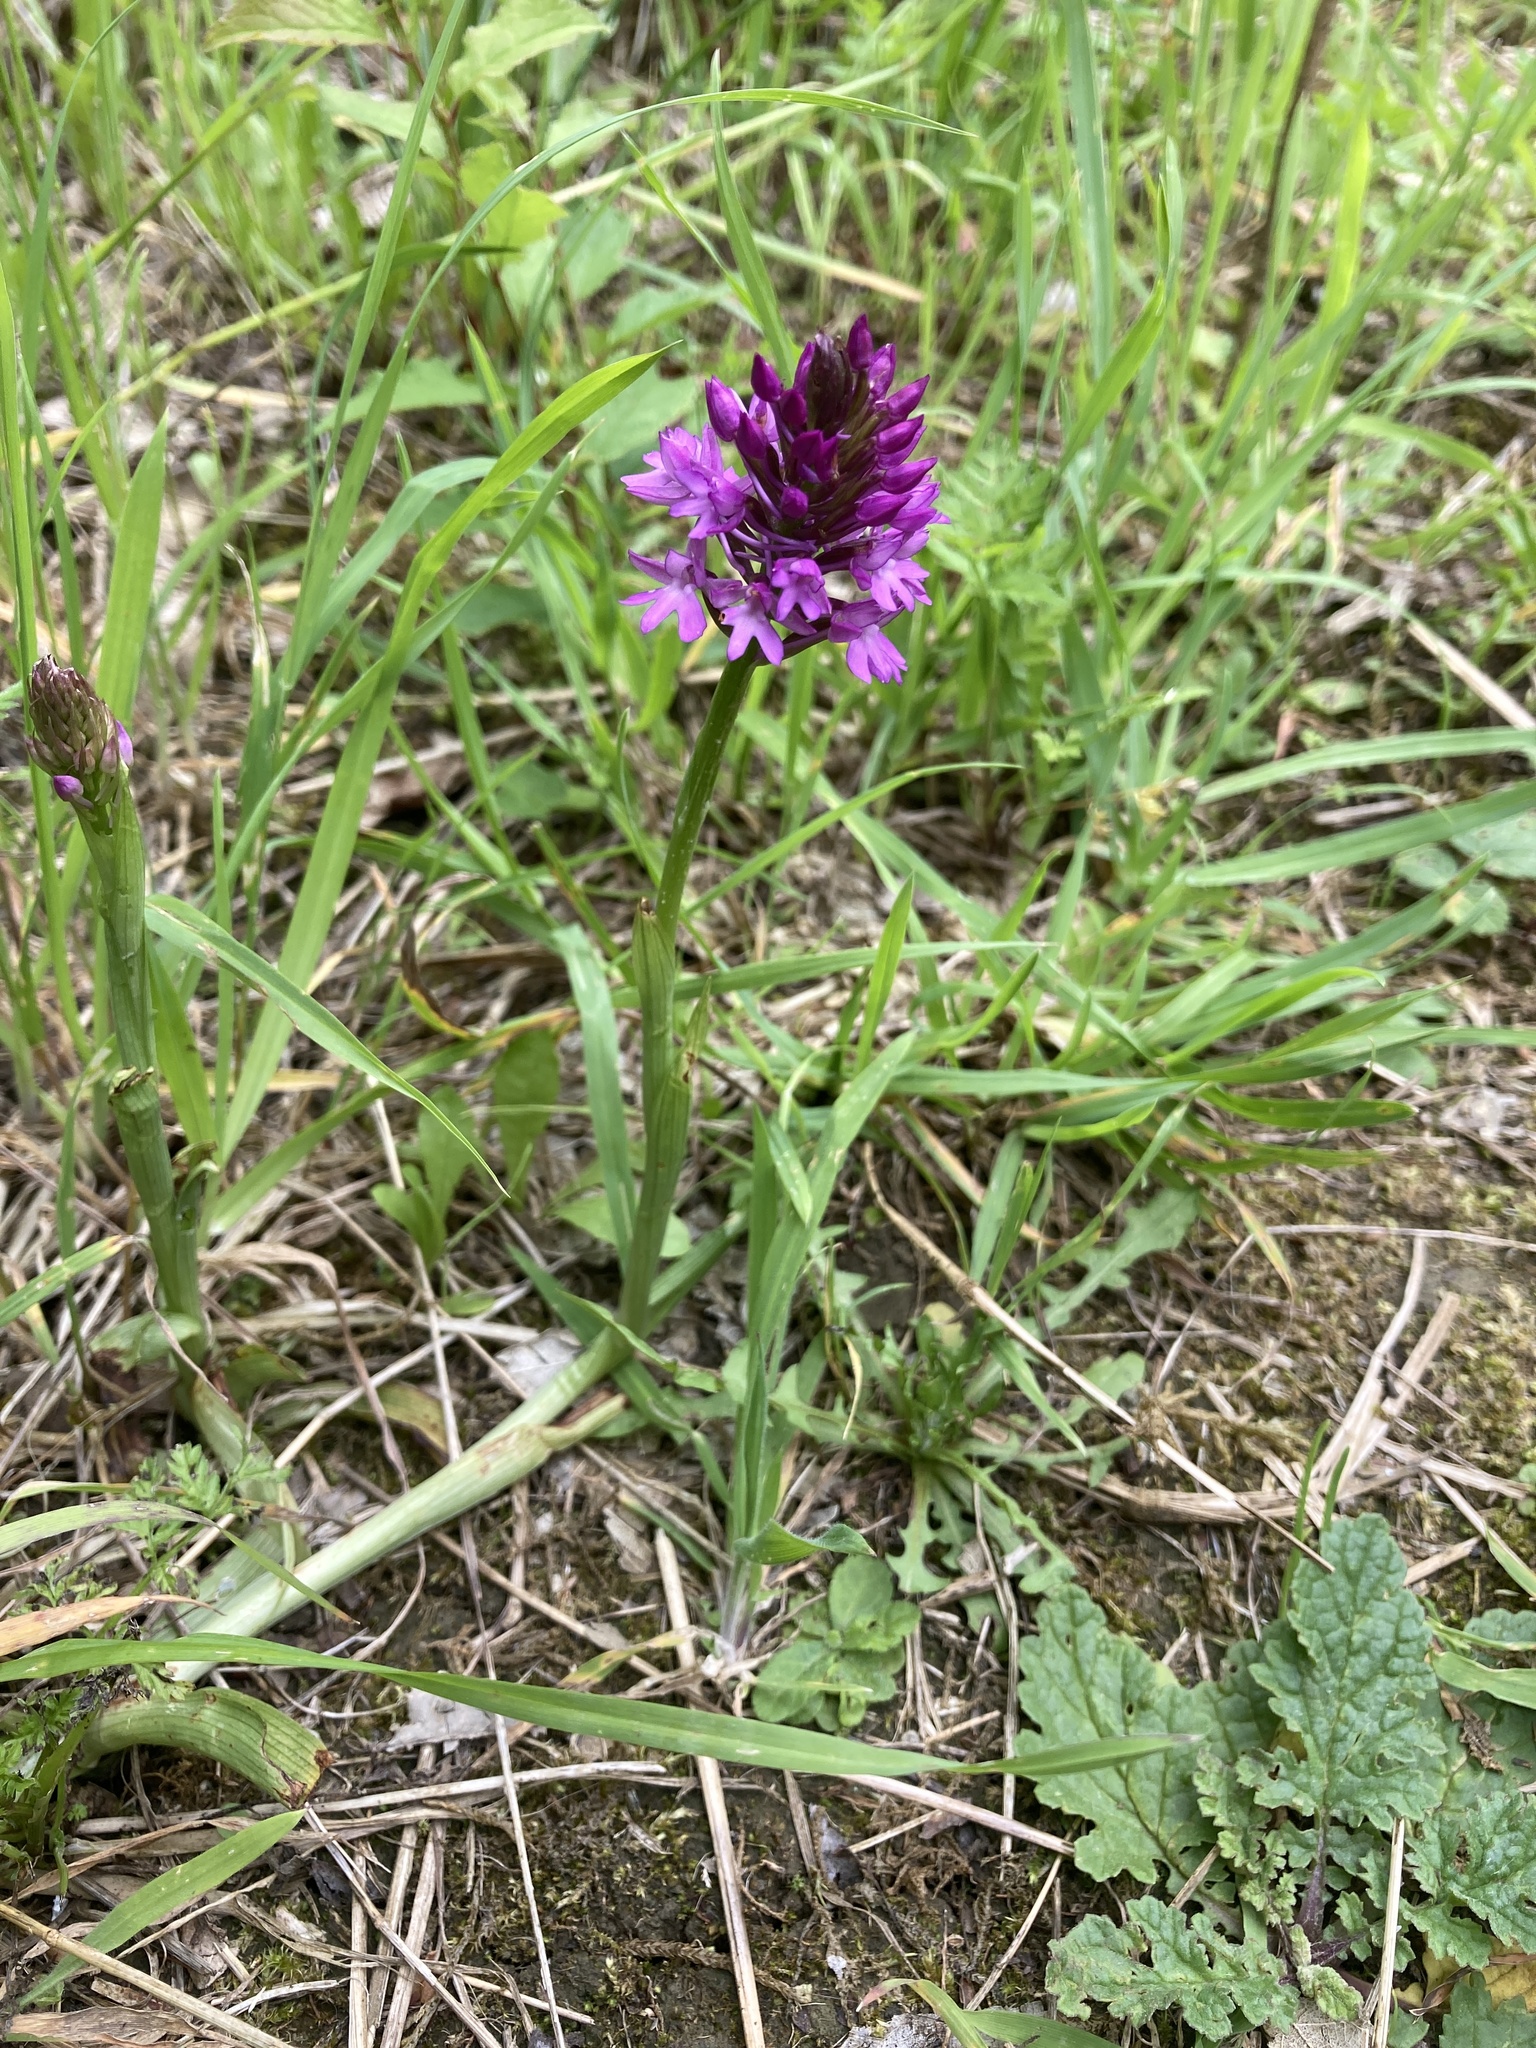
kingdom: Plantae
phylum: Tracheophyta
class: Liliopsida
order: Asparagales
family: Orchidaceae
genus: Anacamptis
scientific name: Anacamptis pyramidalis
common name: Pyramidal orchid
